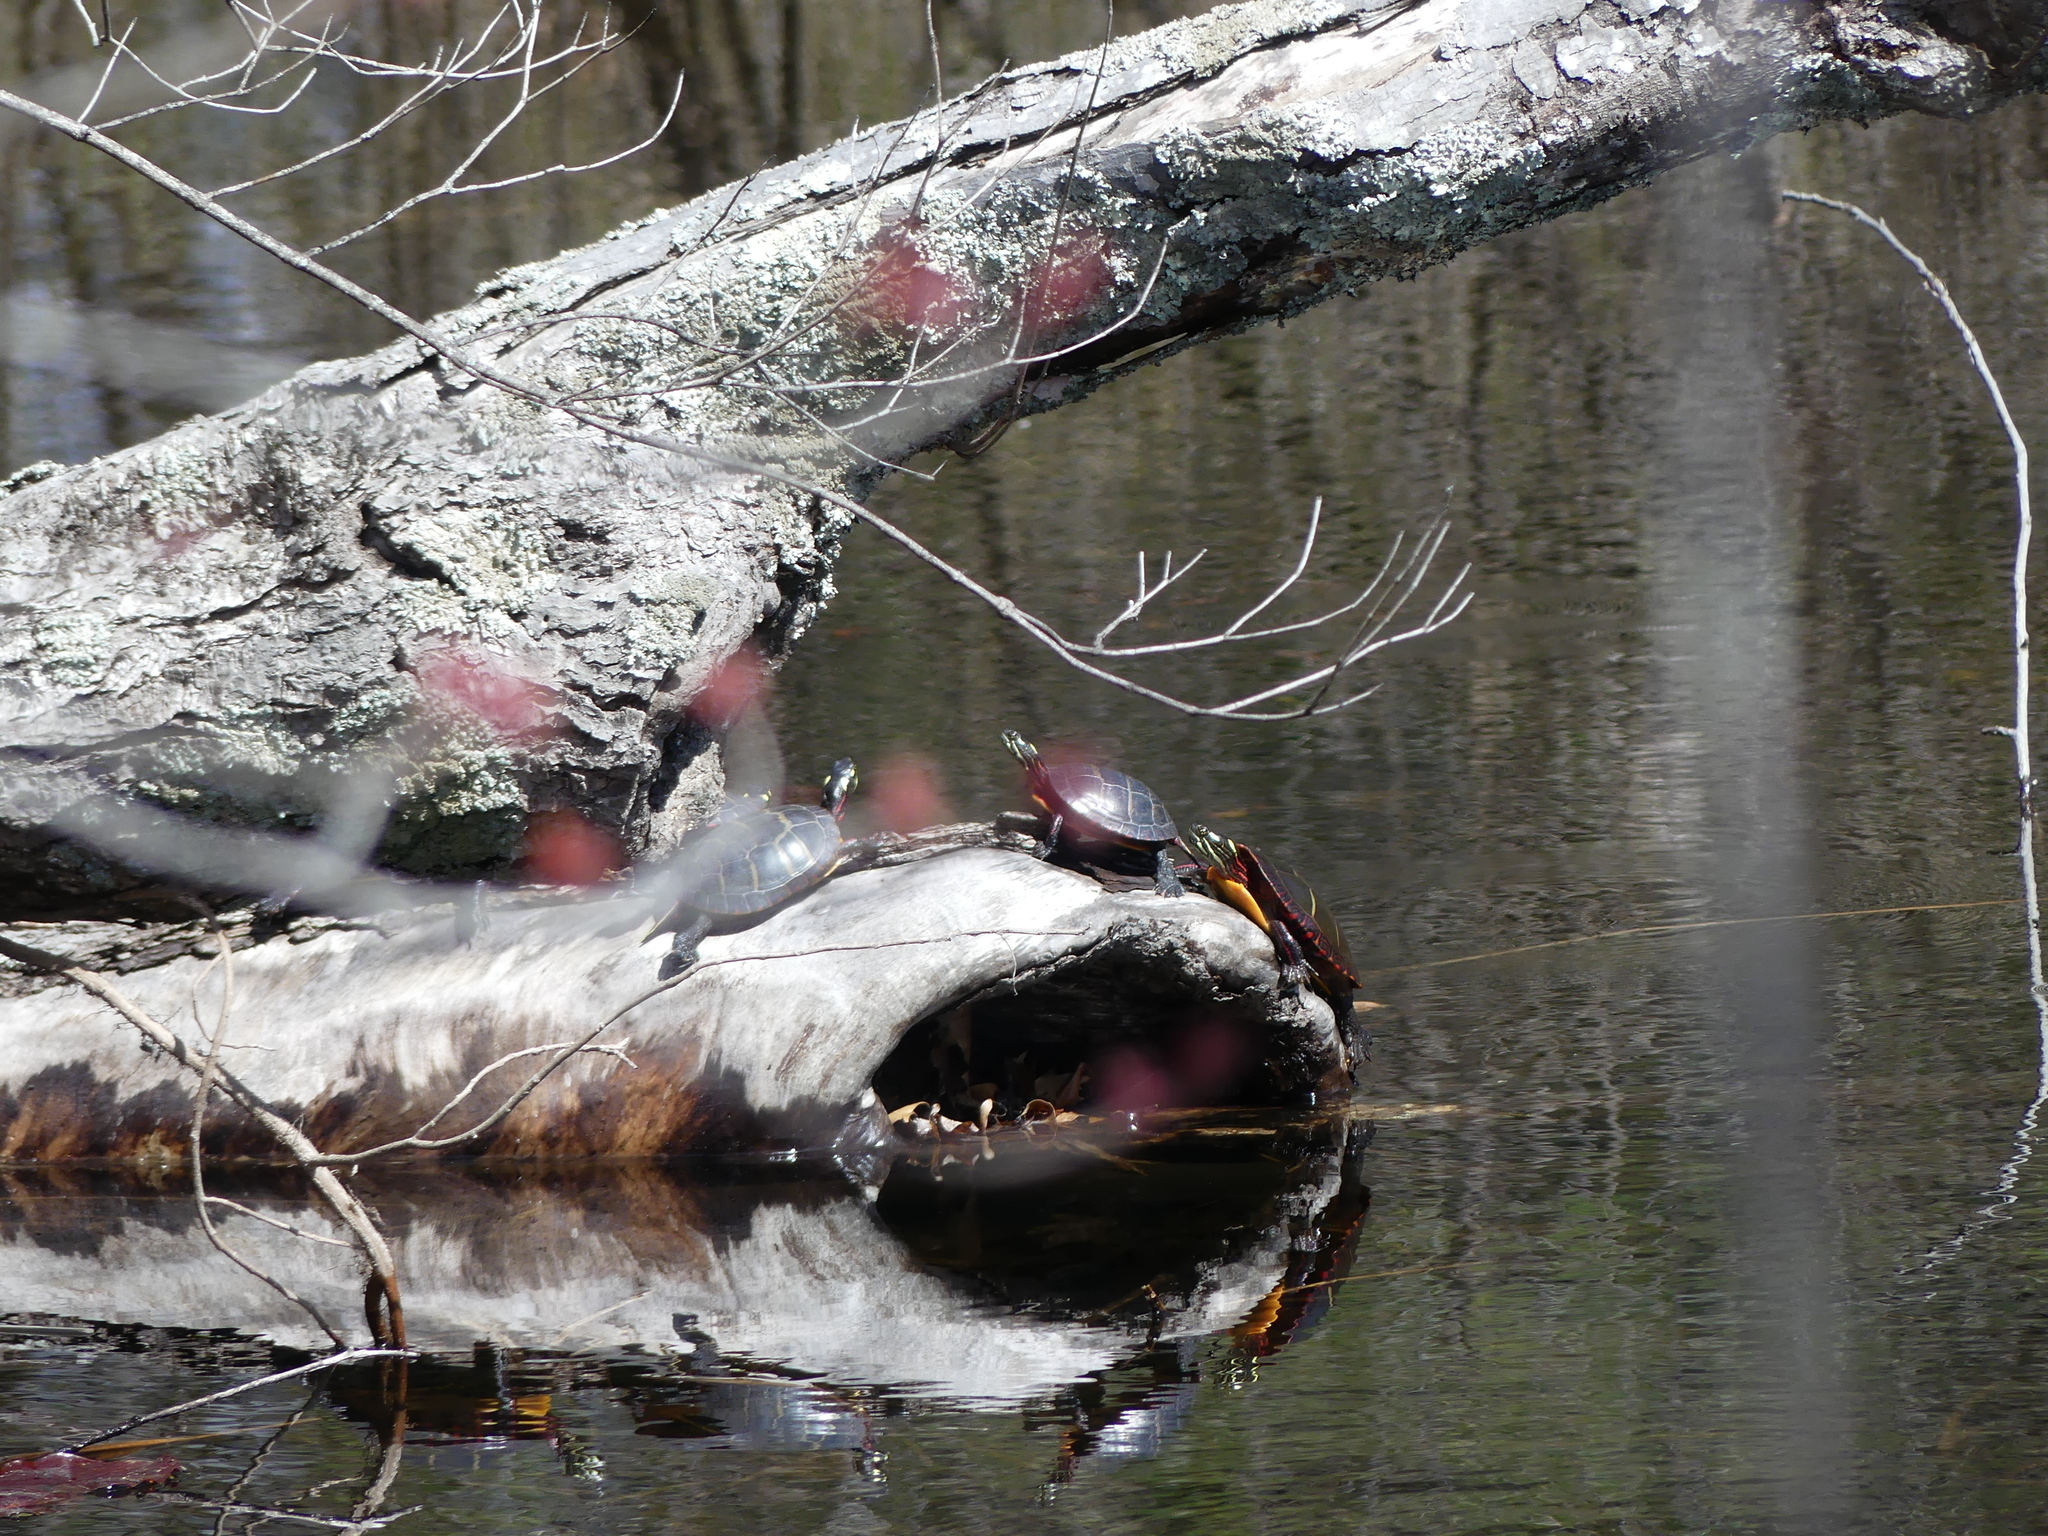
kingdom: Animalia
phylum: Chordata
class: Testudines
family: Emydidae
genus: Chrysemys
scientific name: Chrysemys picta
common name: Painted turtle
